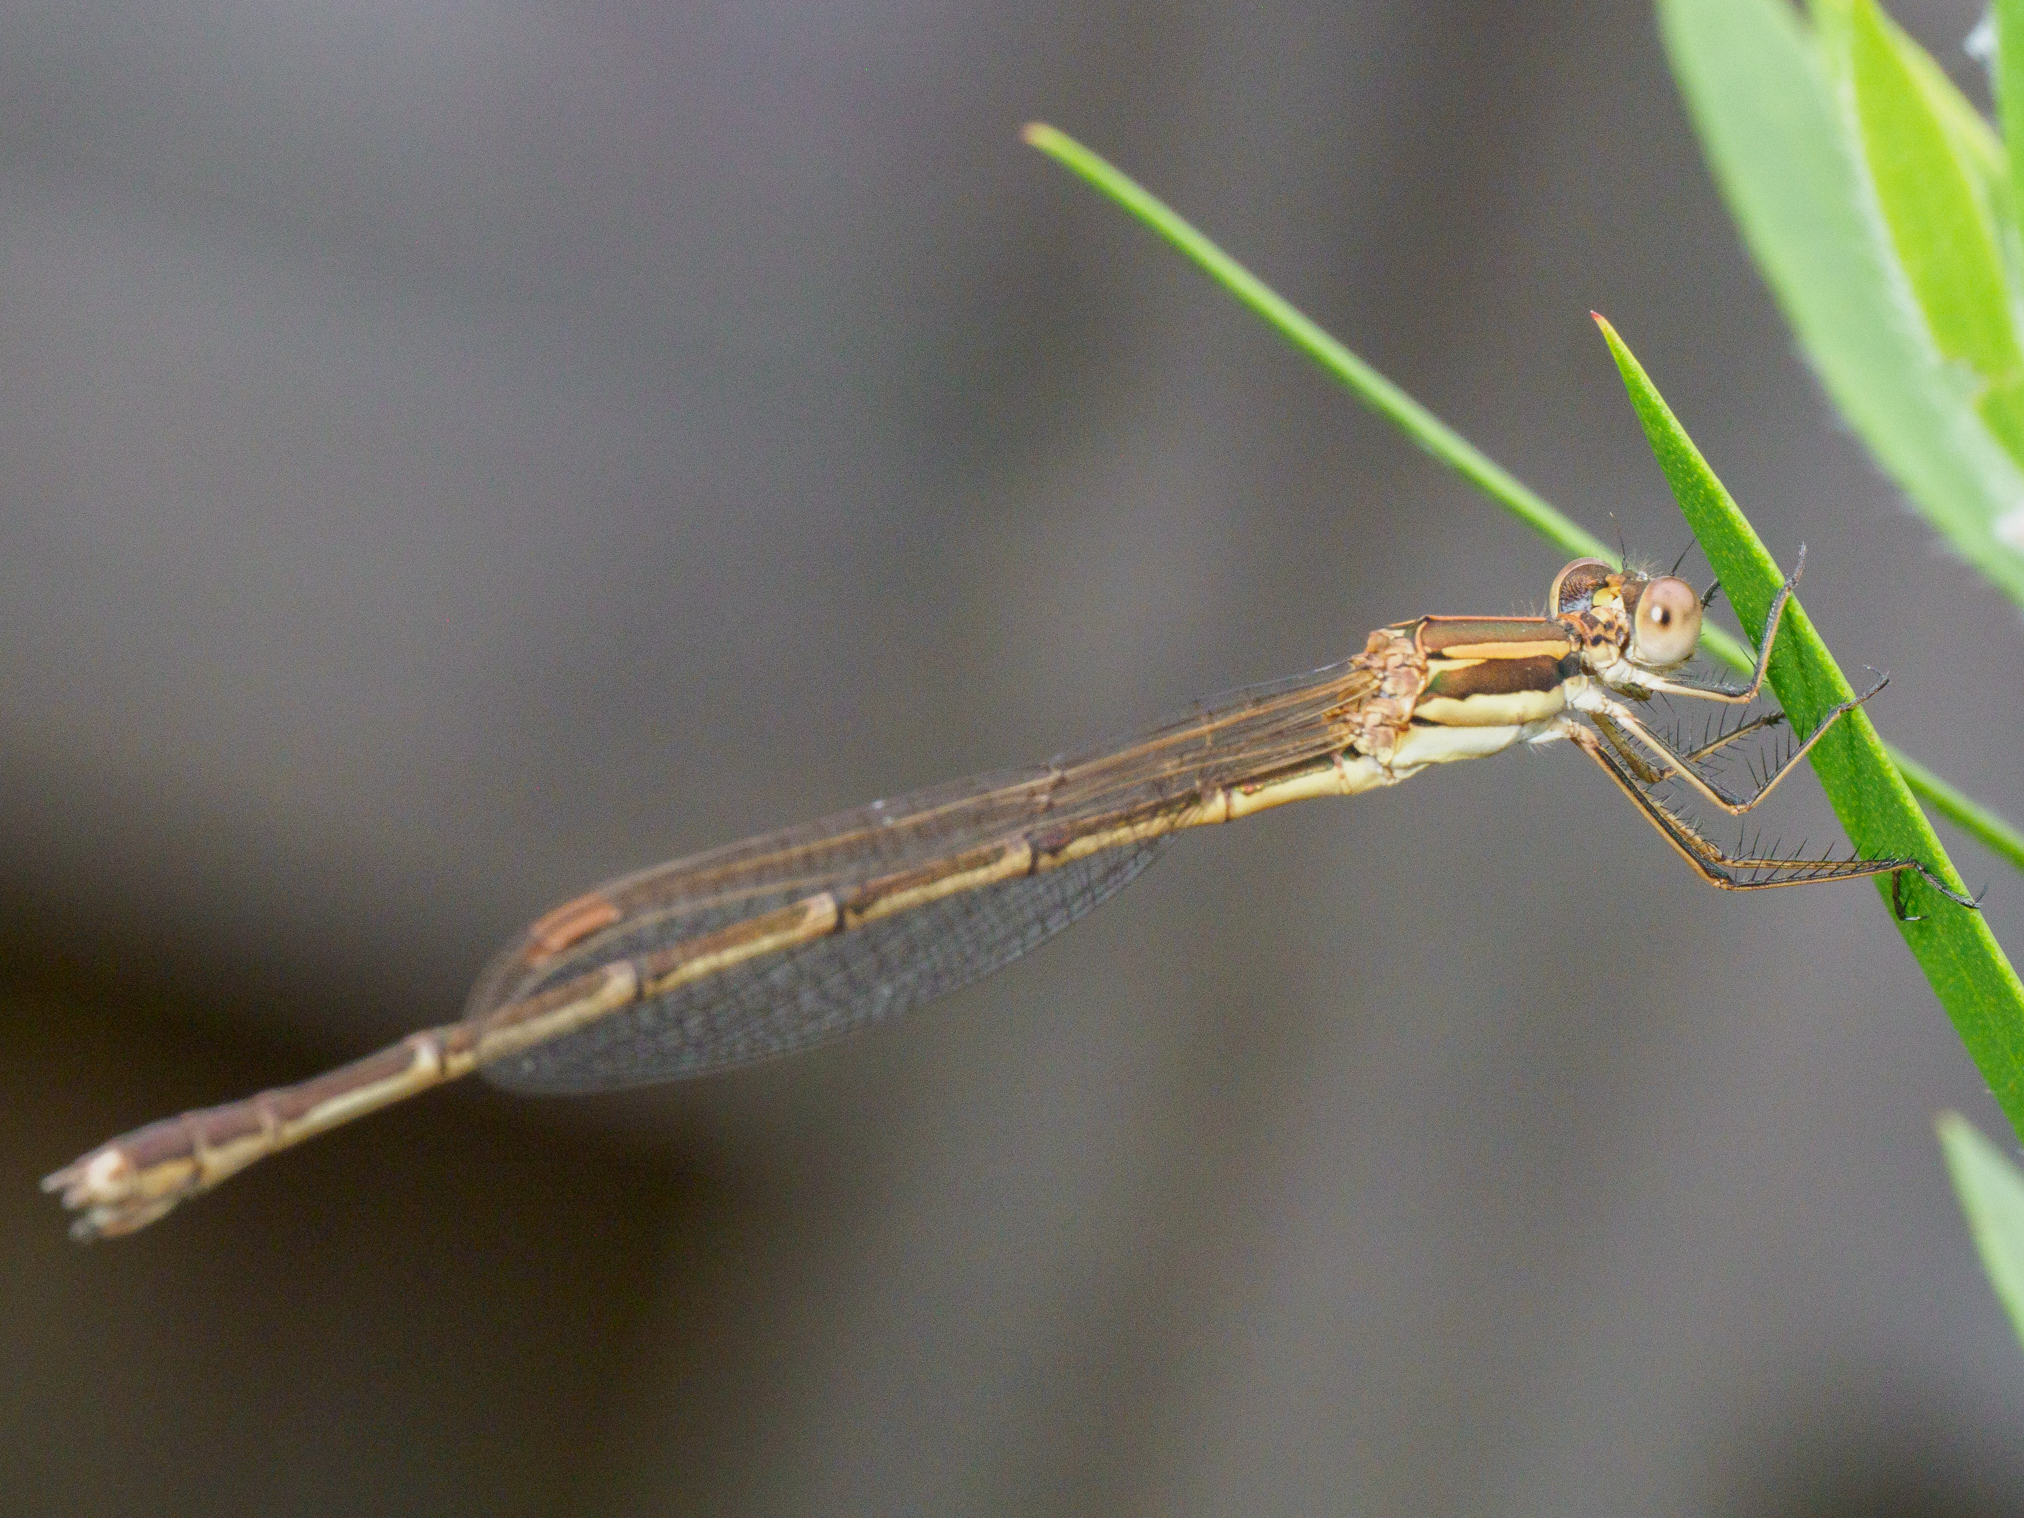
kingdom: Animalia
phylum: Arthropoda
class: Insecta
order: Odonata
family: Lestidae
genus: Austrolestes
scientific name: Austrolestes analis
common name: Slender ringtail
